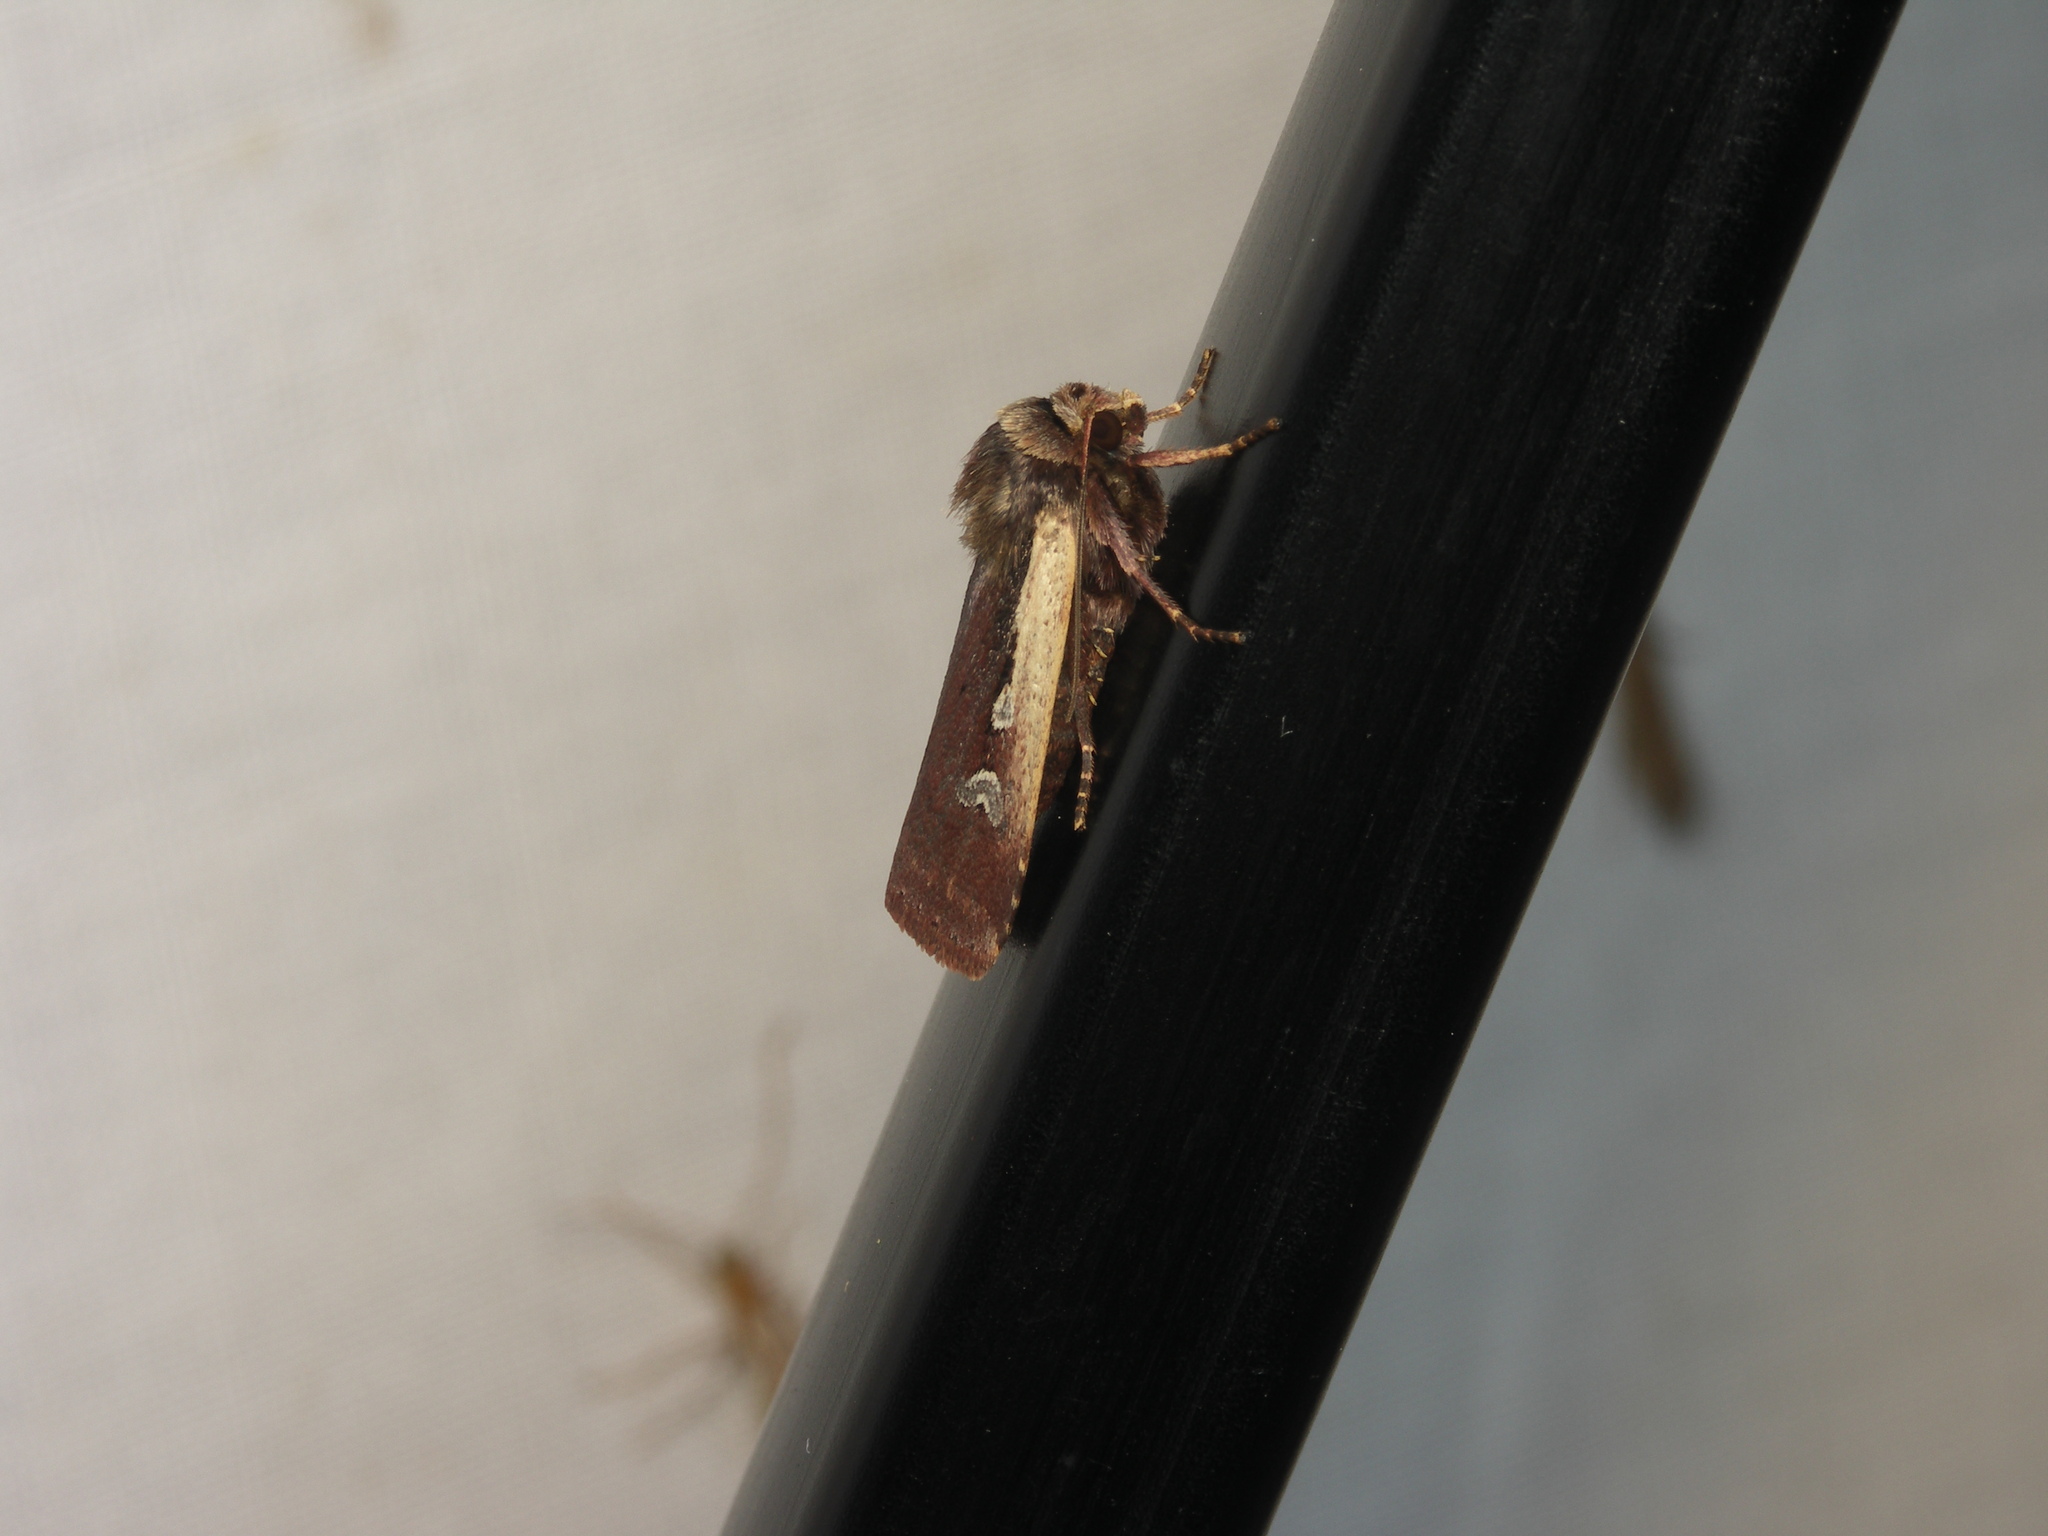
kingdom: Animalia
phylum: Arthropoda
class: Insecta
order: Lepidoptera
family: Noctuidae
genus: Ochropleura
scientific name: Ochropleura plecta
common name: Flame shoulder
